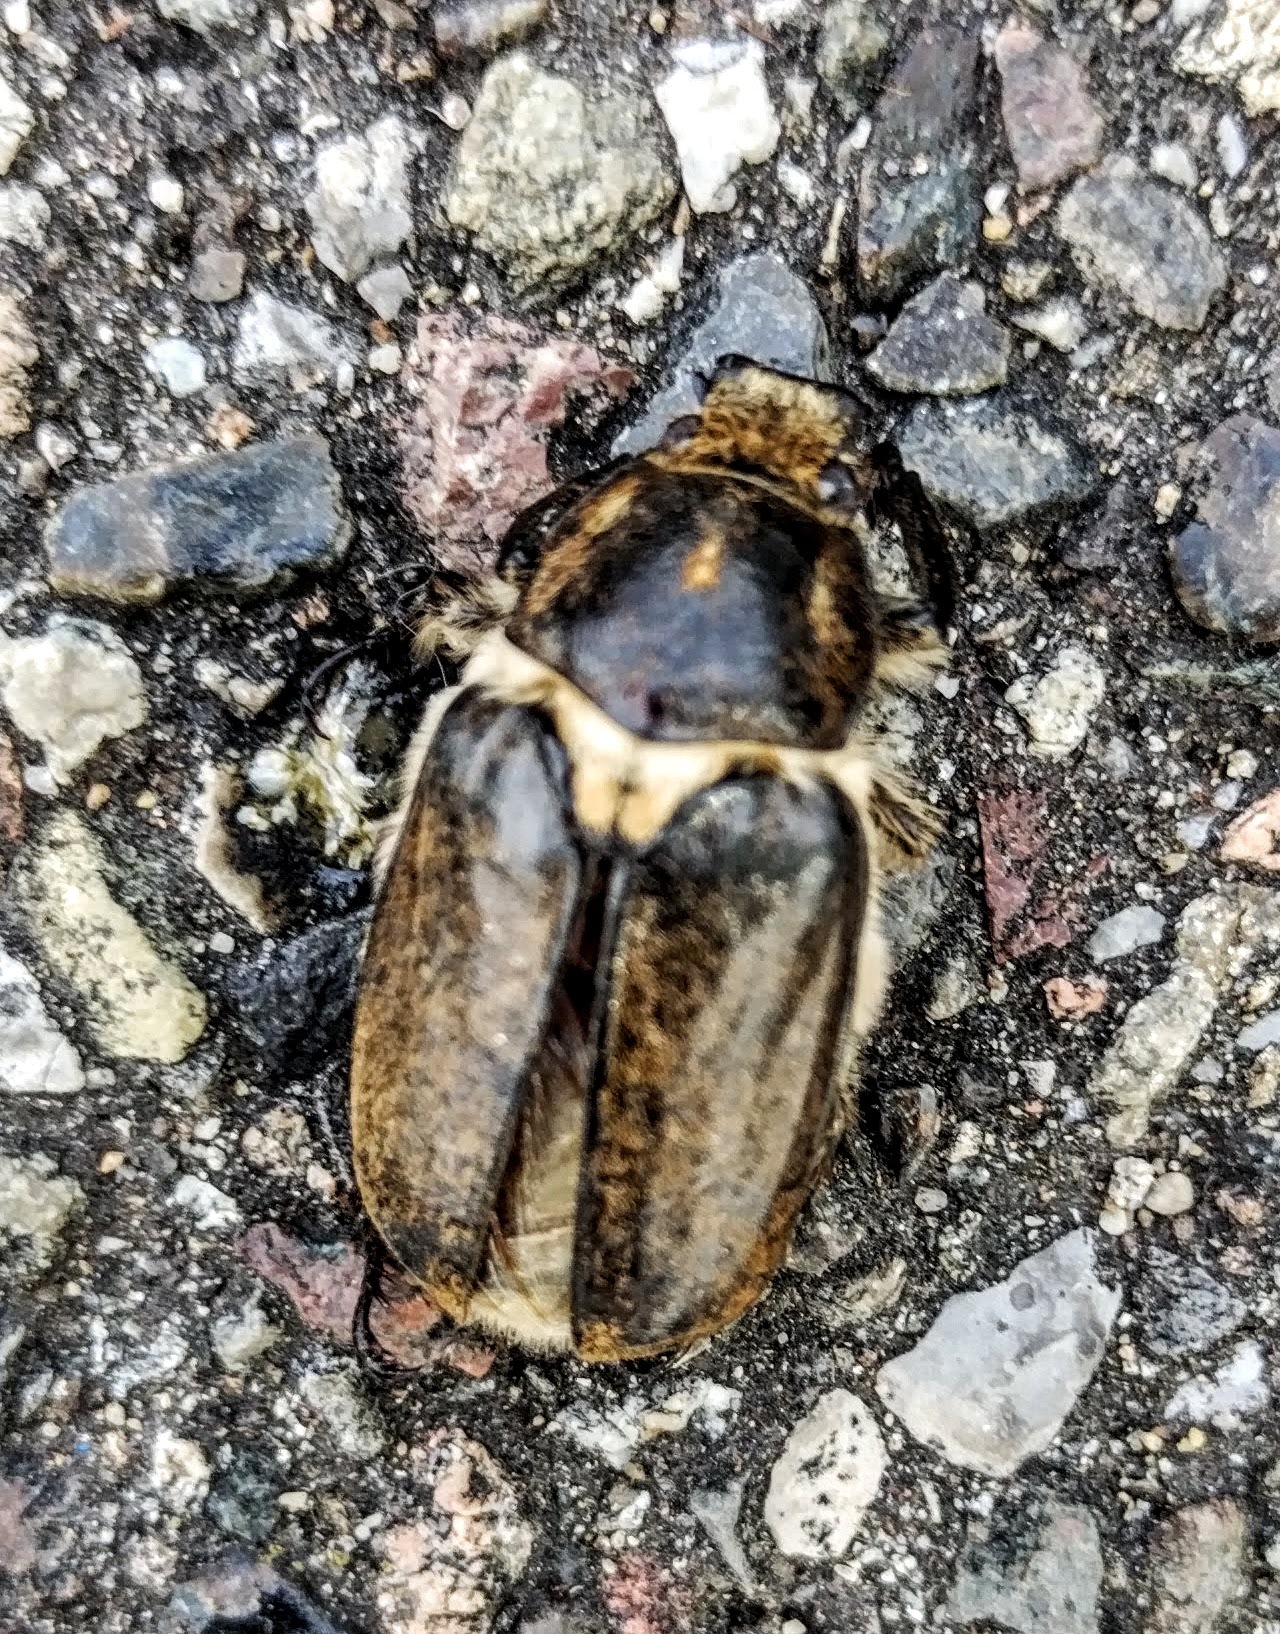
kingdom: Animalia
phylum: Arthropoda
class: Insecta
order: Coleoptera
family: Scarabaeidae
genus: Anoxia
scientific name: Anoxia villosa
